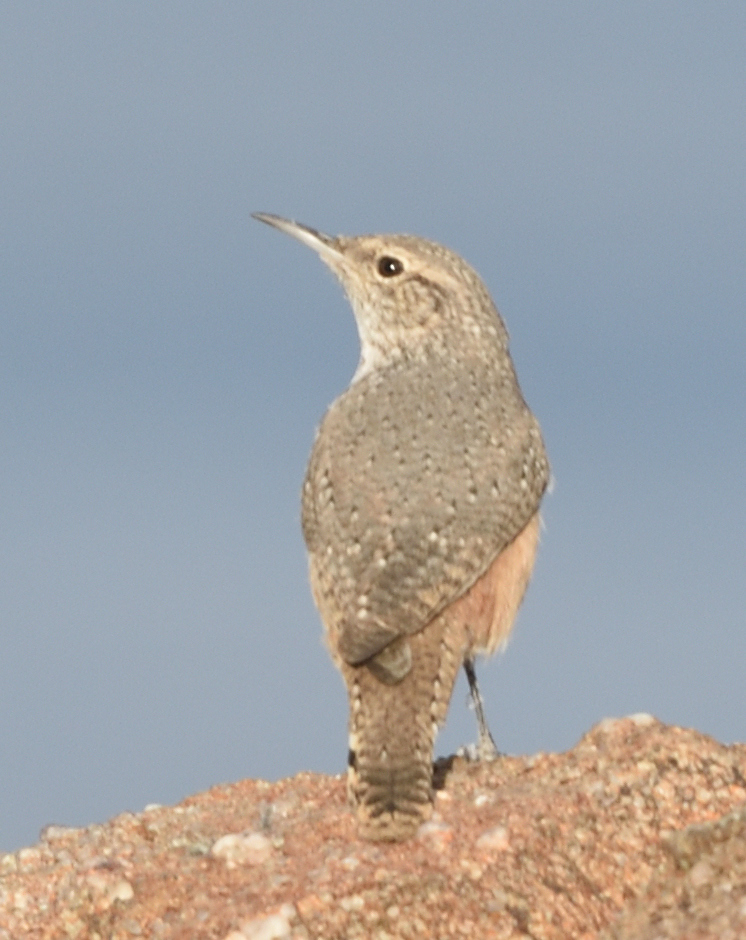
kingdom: Animalia
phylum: Chordata
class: Aves
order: Passeriformes
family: Troglodytidae
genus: Salpinctes
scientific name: Salpinctes obsoletus
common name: Rock wren
